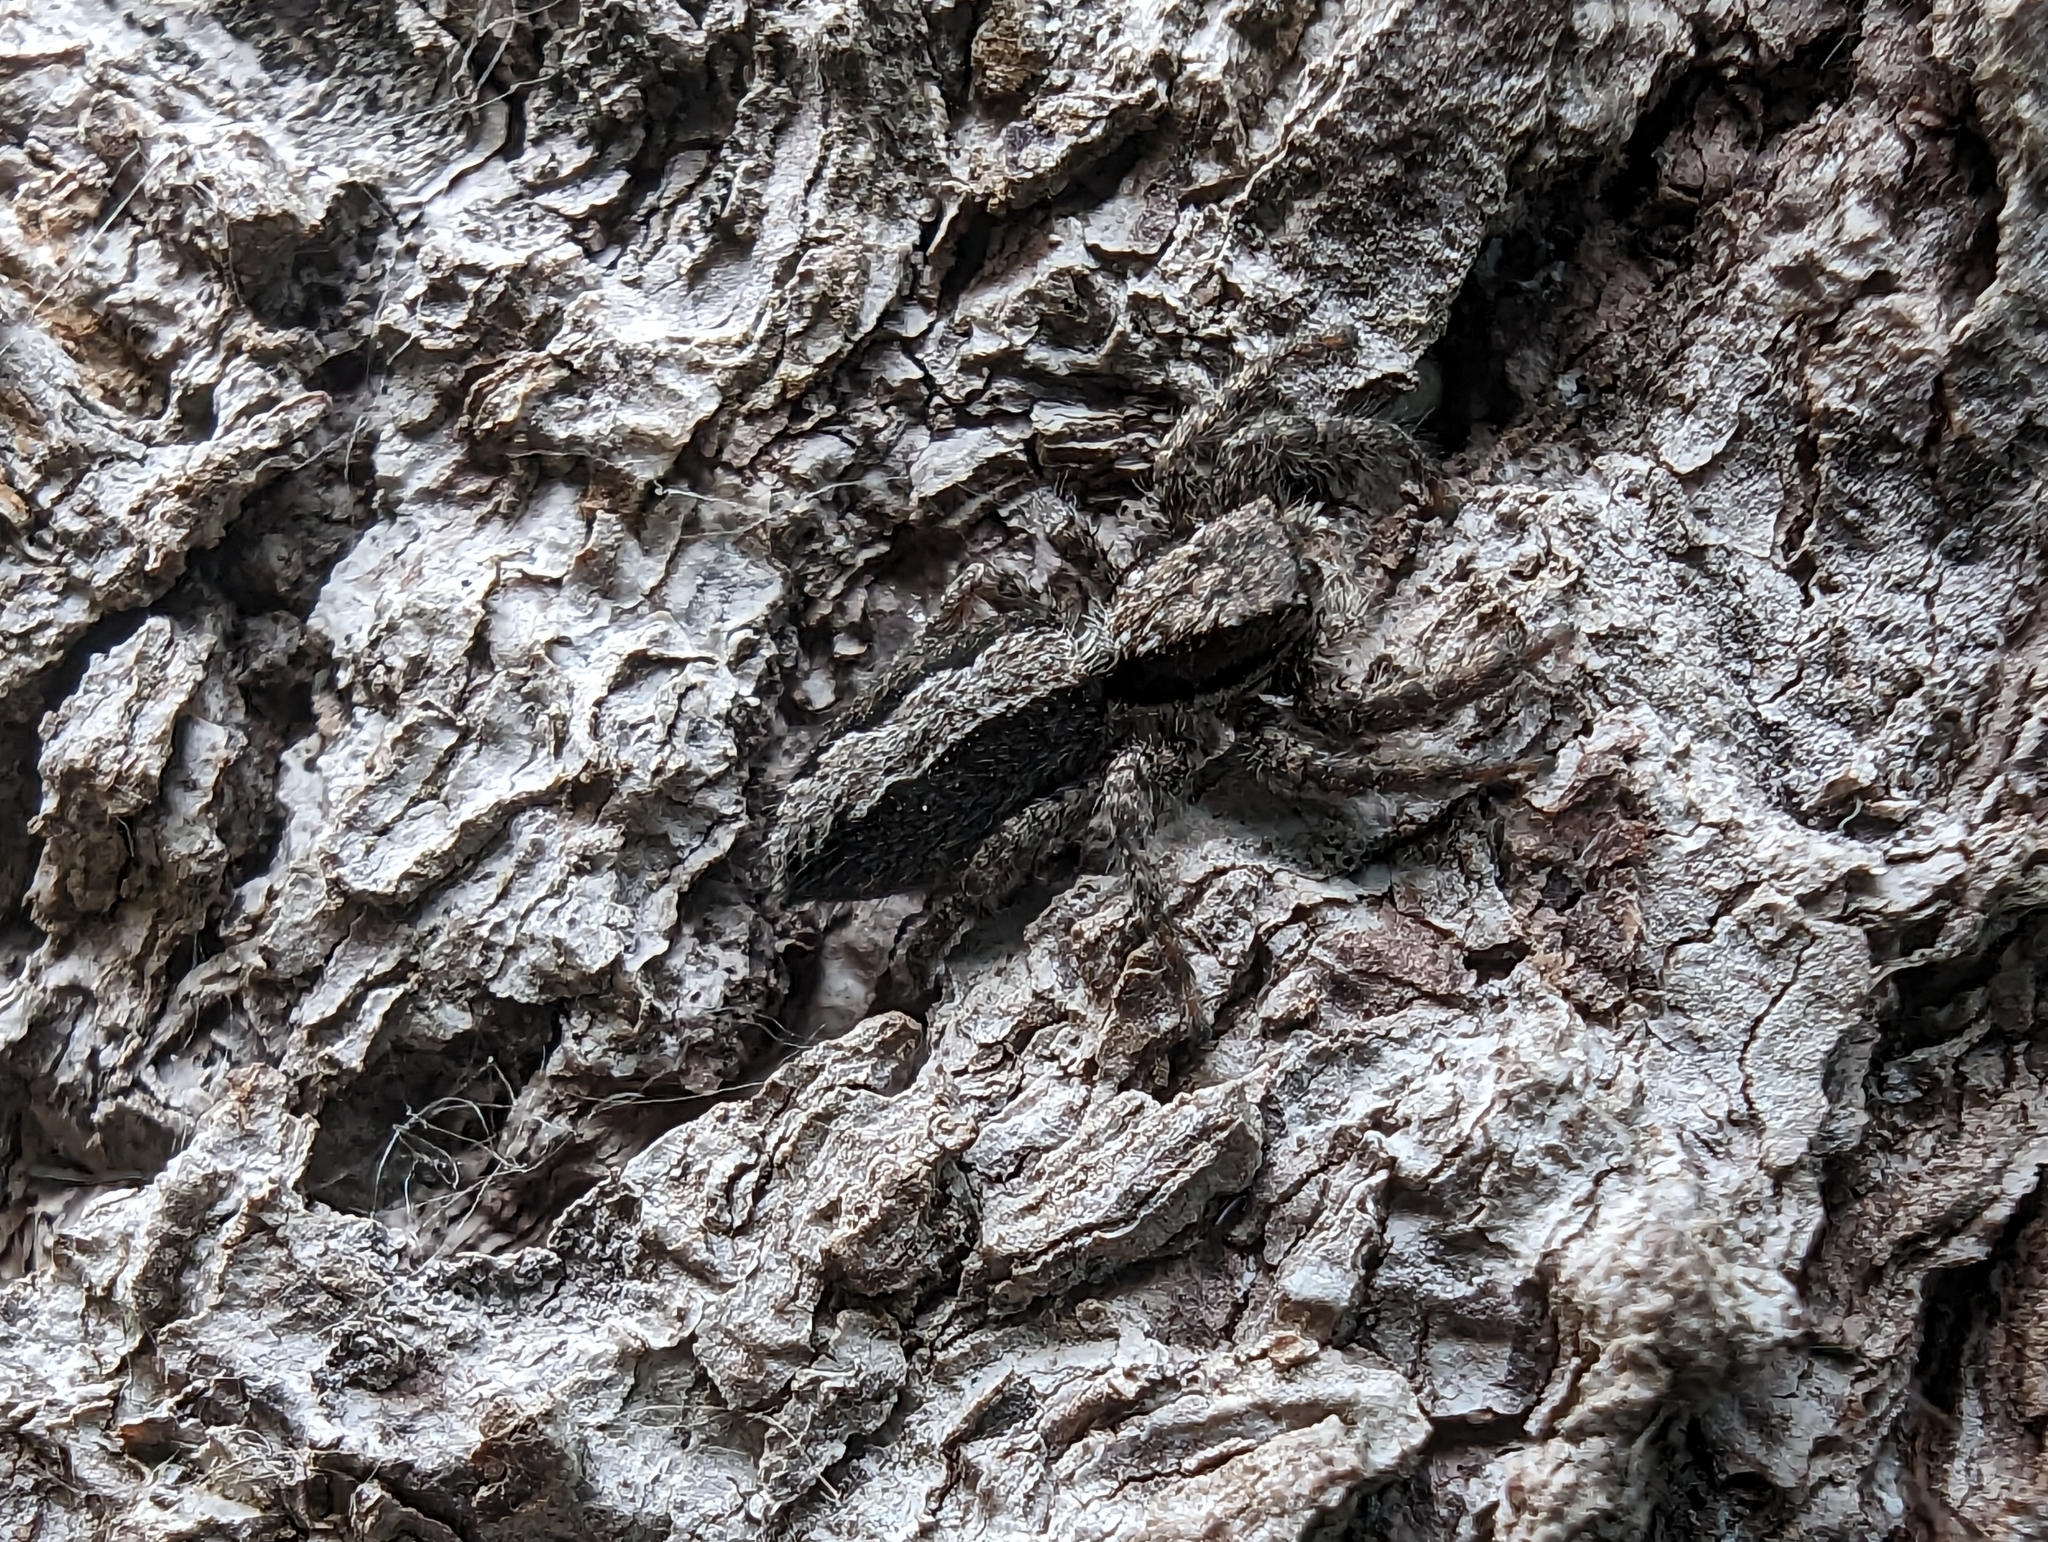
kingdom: Animalia
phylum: Arthropoda
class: Arachnida
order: Araneae
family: Salticidae
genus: Platycryptus
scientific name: Platycryptus californicus
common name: Jumping spiders
